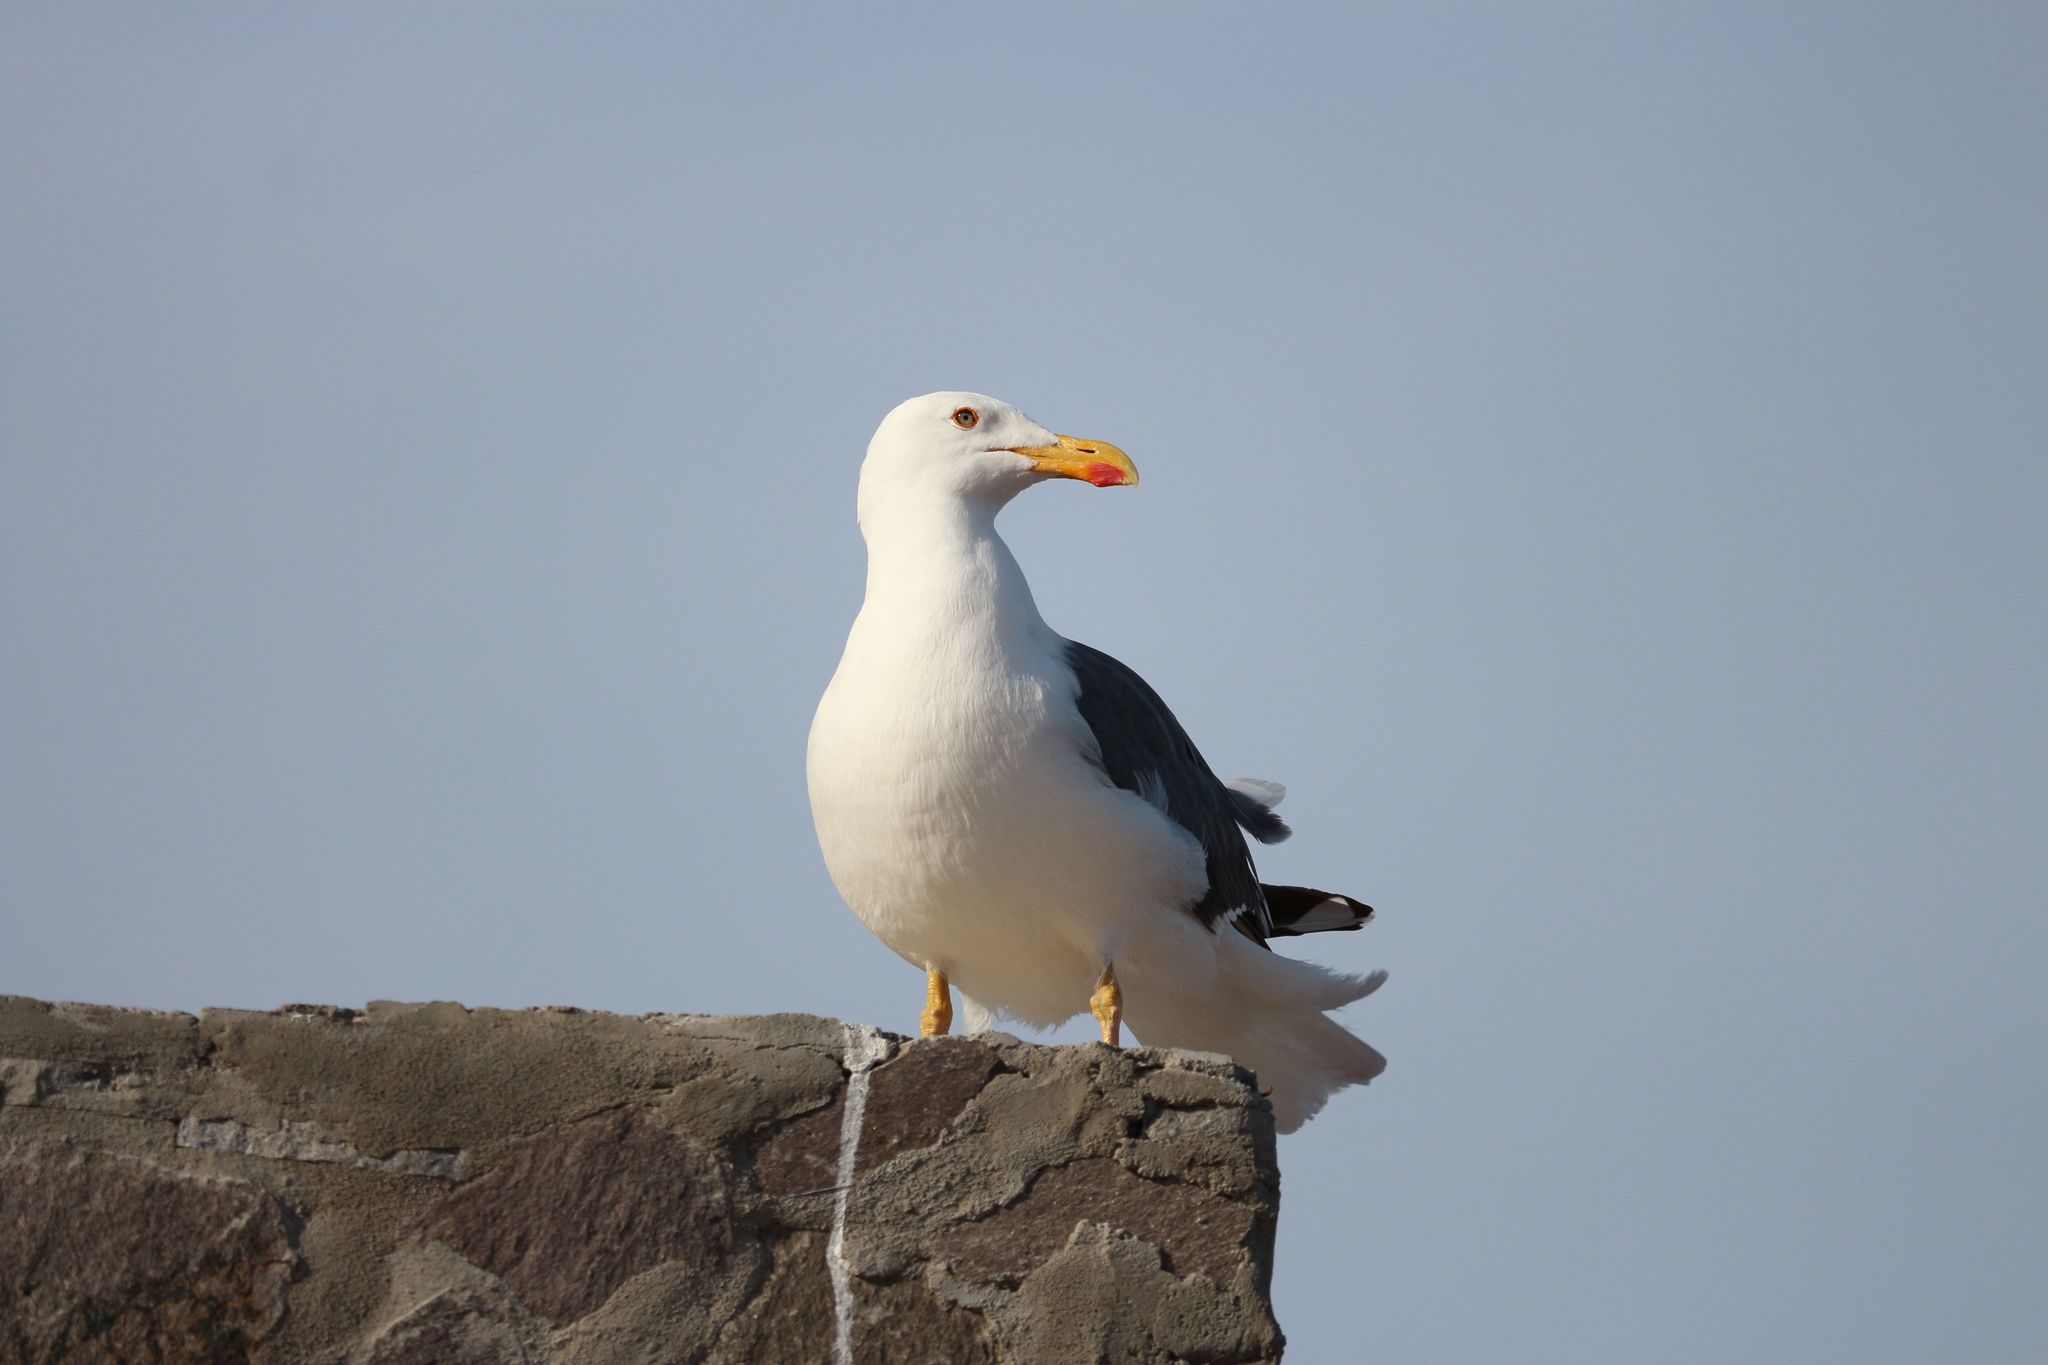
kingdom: Animalia
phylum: Chordata
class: Aves
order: Charadriiformes
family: Laridae
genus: Larus
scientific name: Larus livens
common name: Yellow-footed gull
